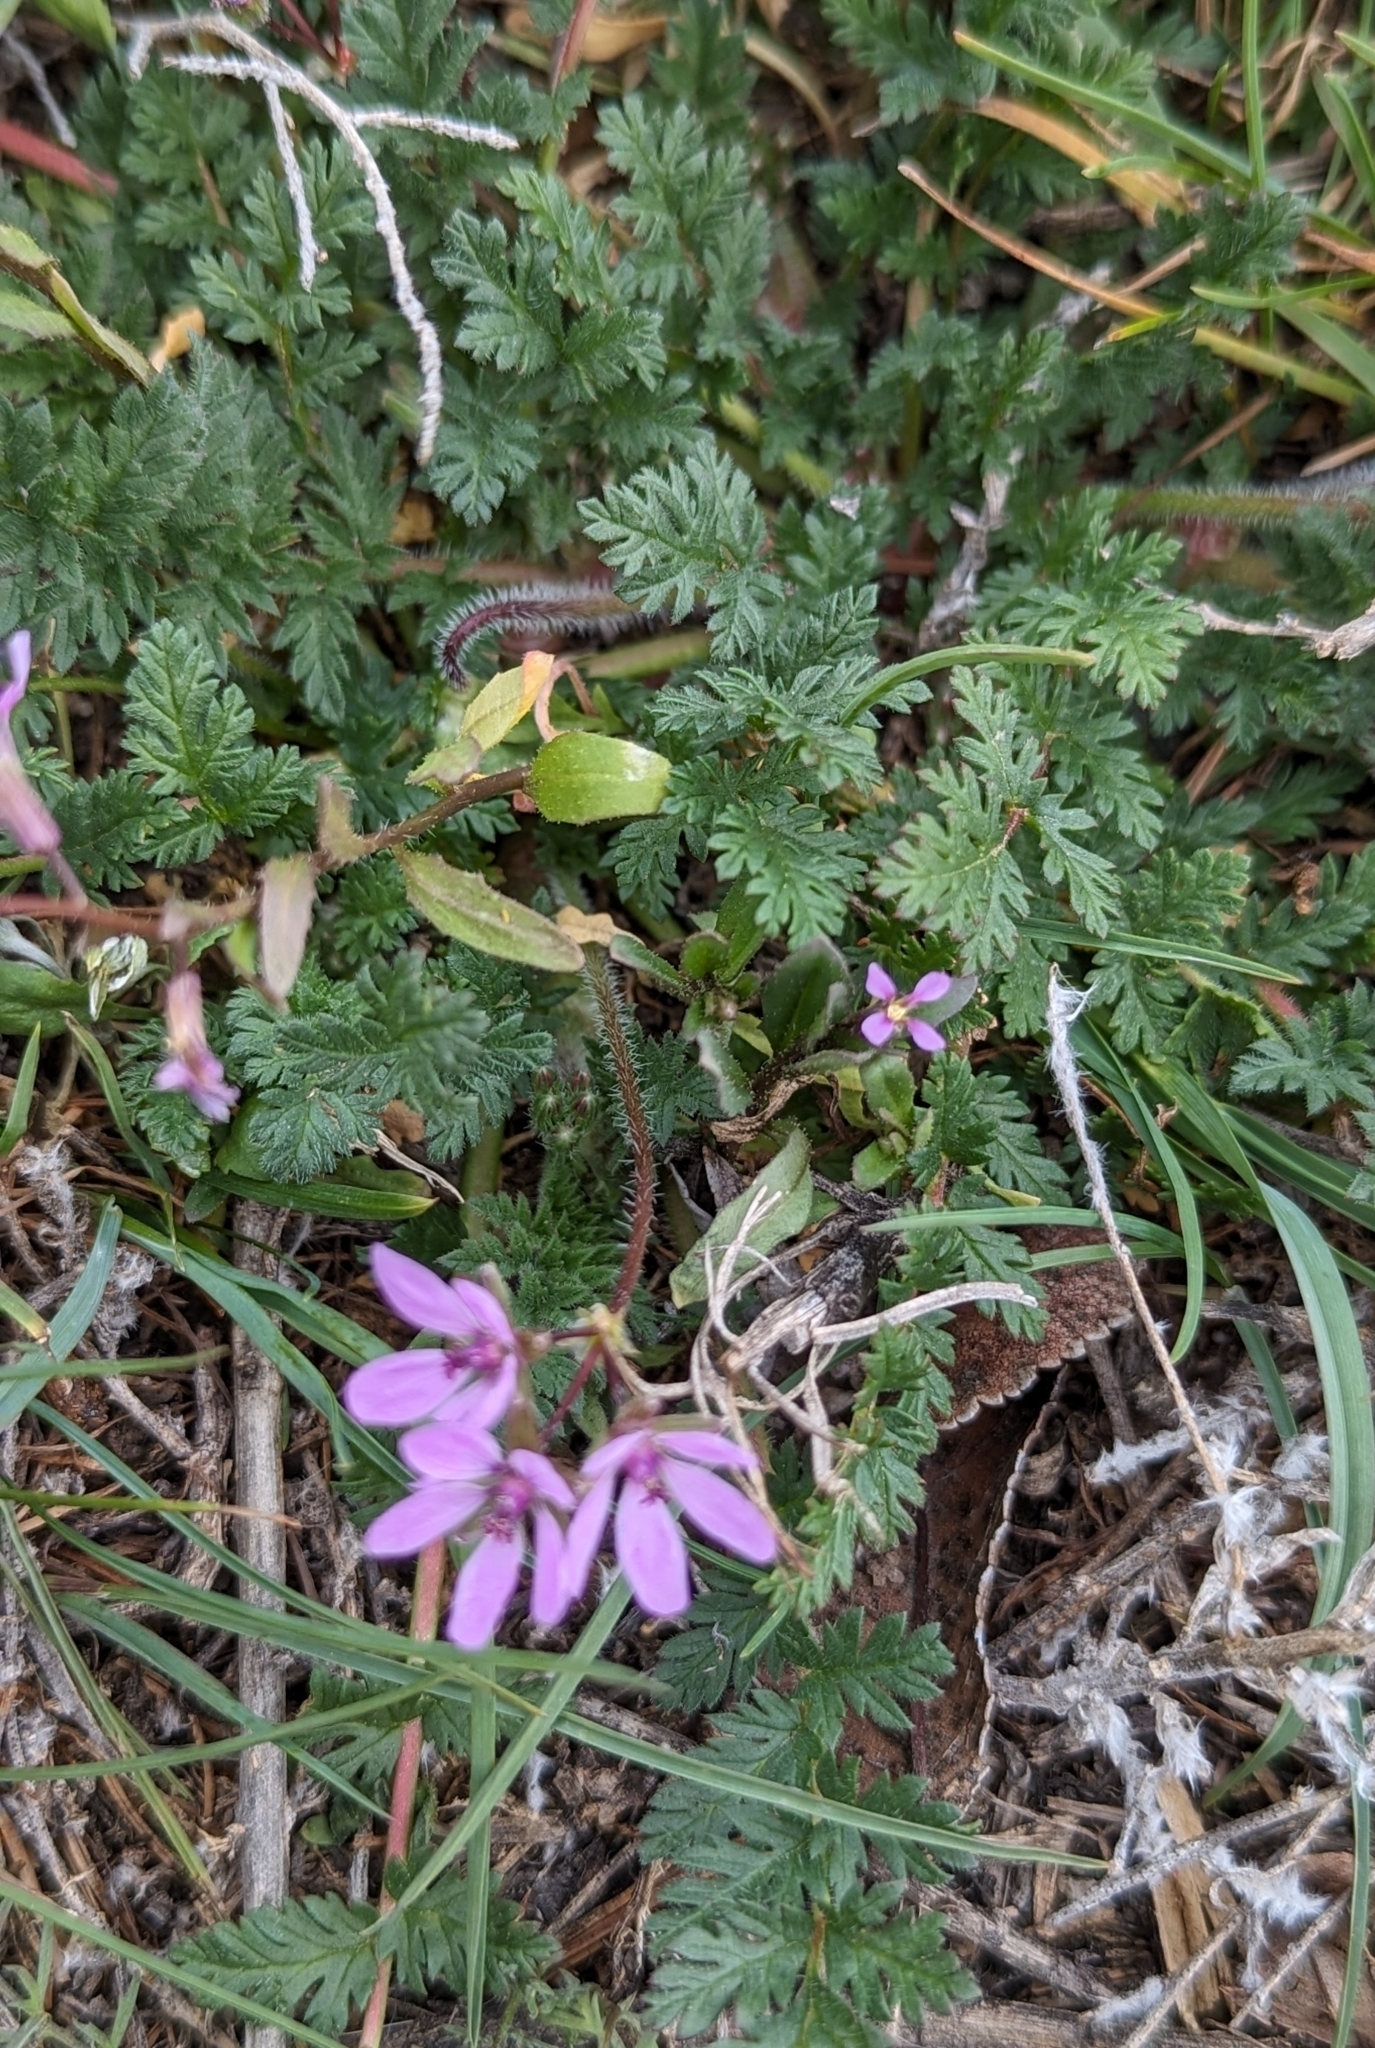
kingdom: Plantae
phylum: Tracheophyta
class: Magnoliopsida
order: Geraniales
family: Geraniaceae
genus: Erodium
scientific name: Erodium cicutarium
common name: Common stork's-bill
